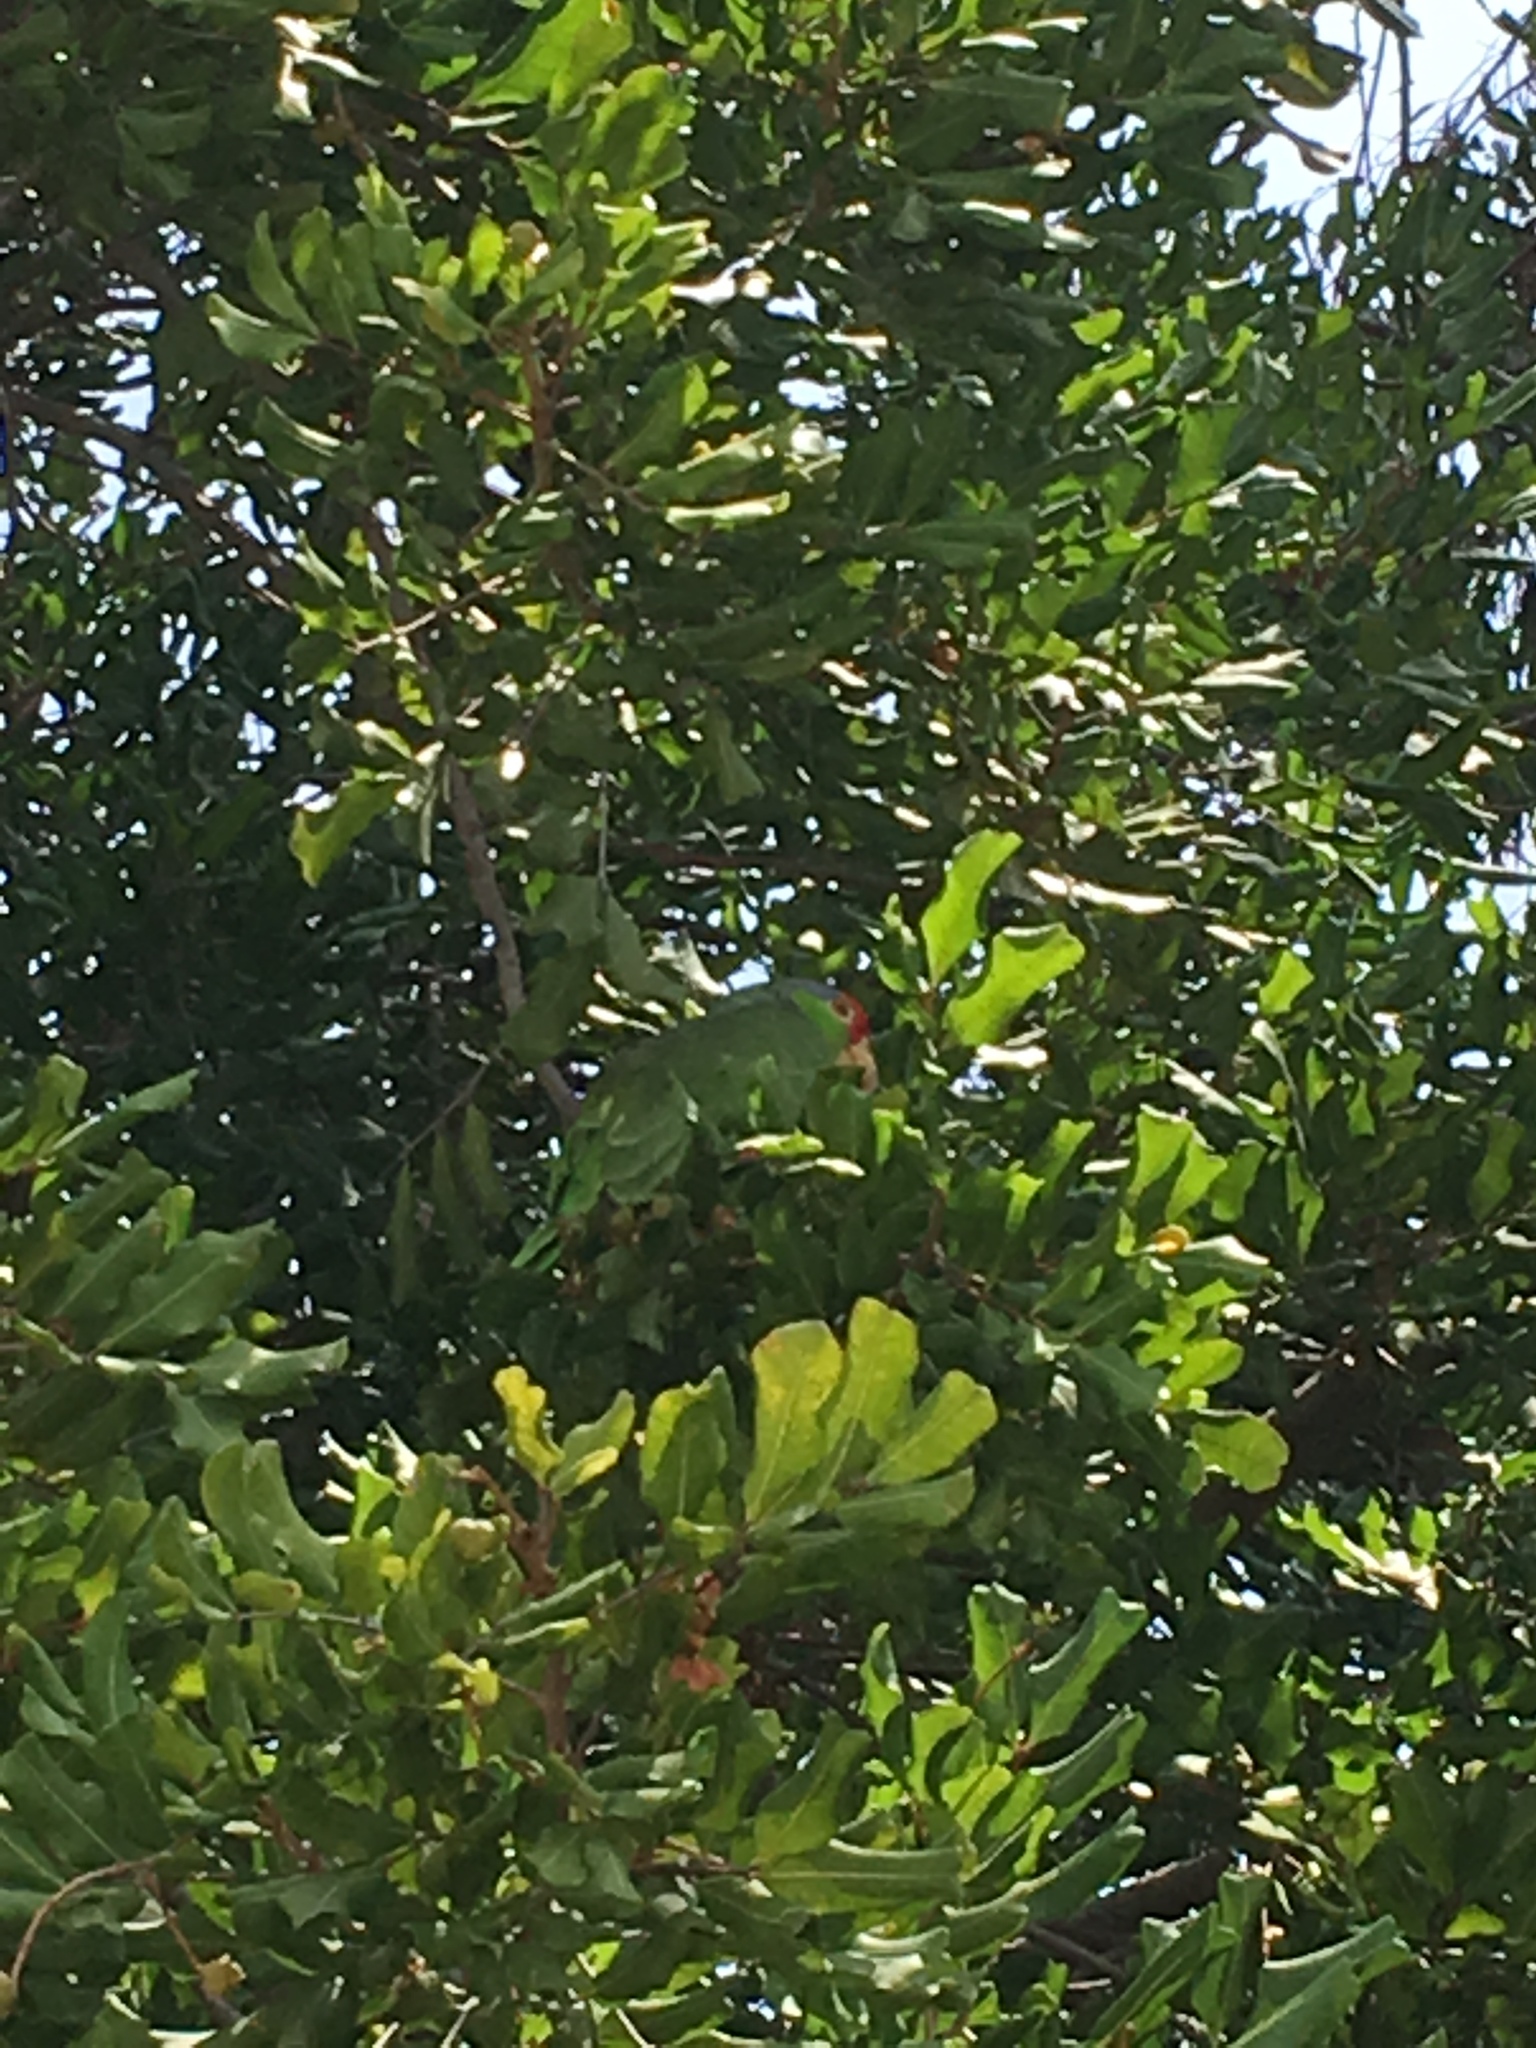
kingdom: Animalia
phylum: Chordata
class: Aves
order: Psittaciformes
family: Psittacidae
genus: Amazona
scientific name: Amazona viridigenalis
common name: Red-crowned amazon
